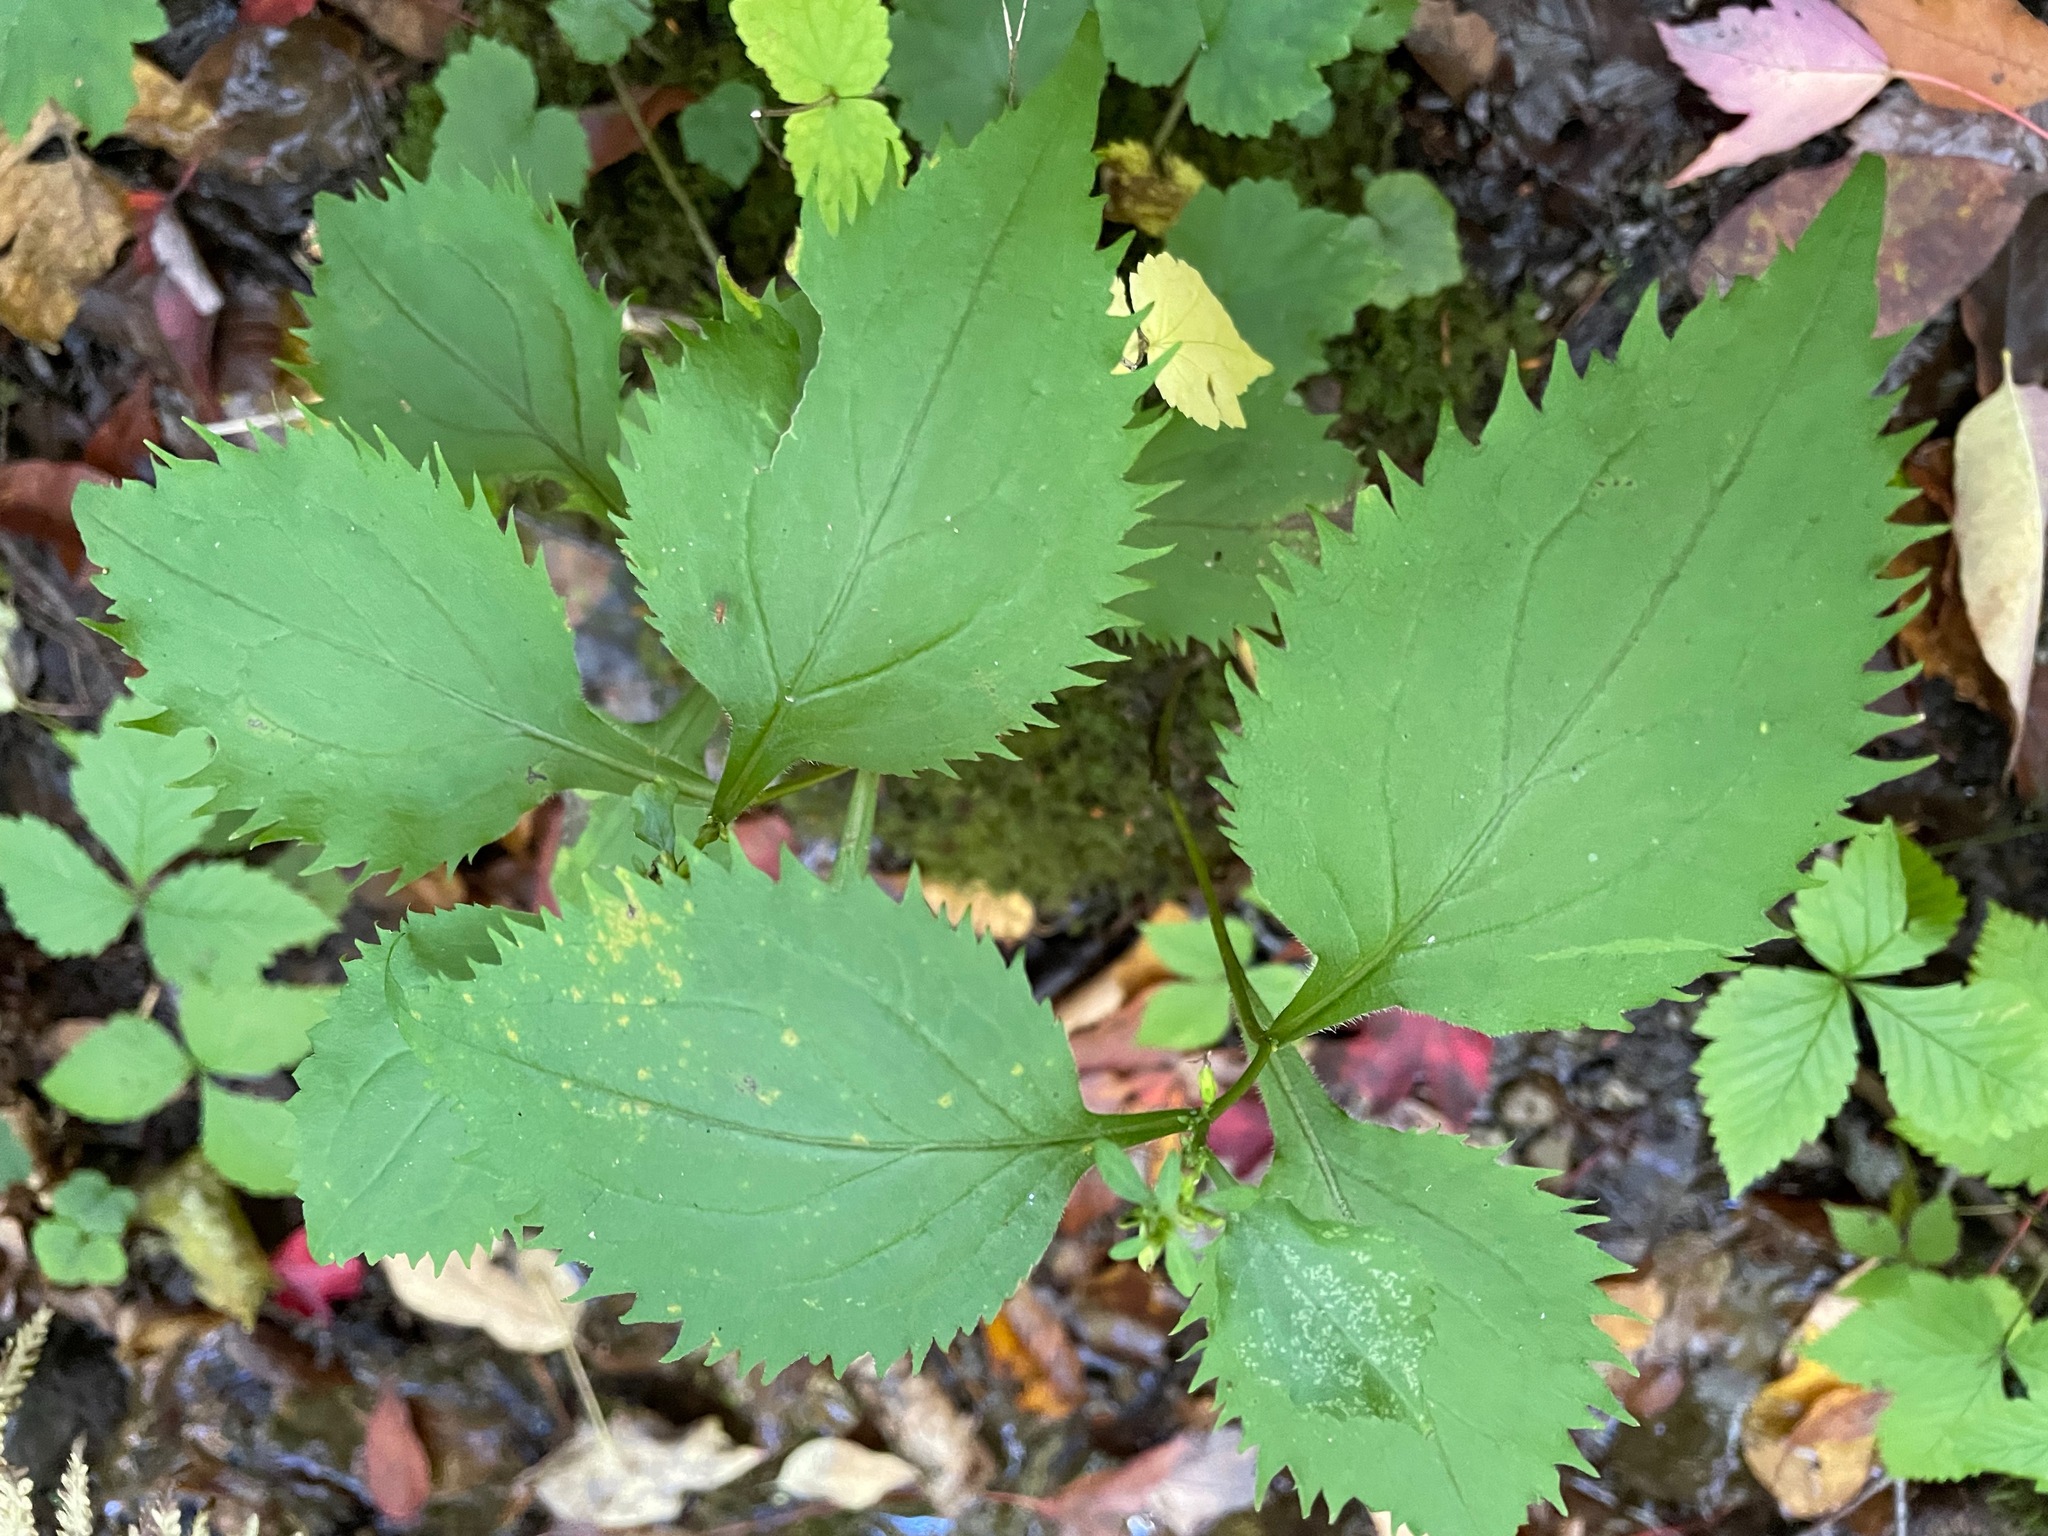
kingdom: Plantae
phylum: Tracheophyta
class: Magnoliopsida
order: Asterales
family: Asteraceae
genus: Solidago
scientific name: Solidago flexicaulis
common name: Zig-zag goldenrod
